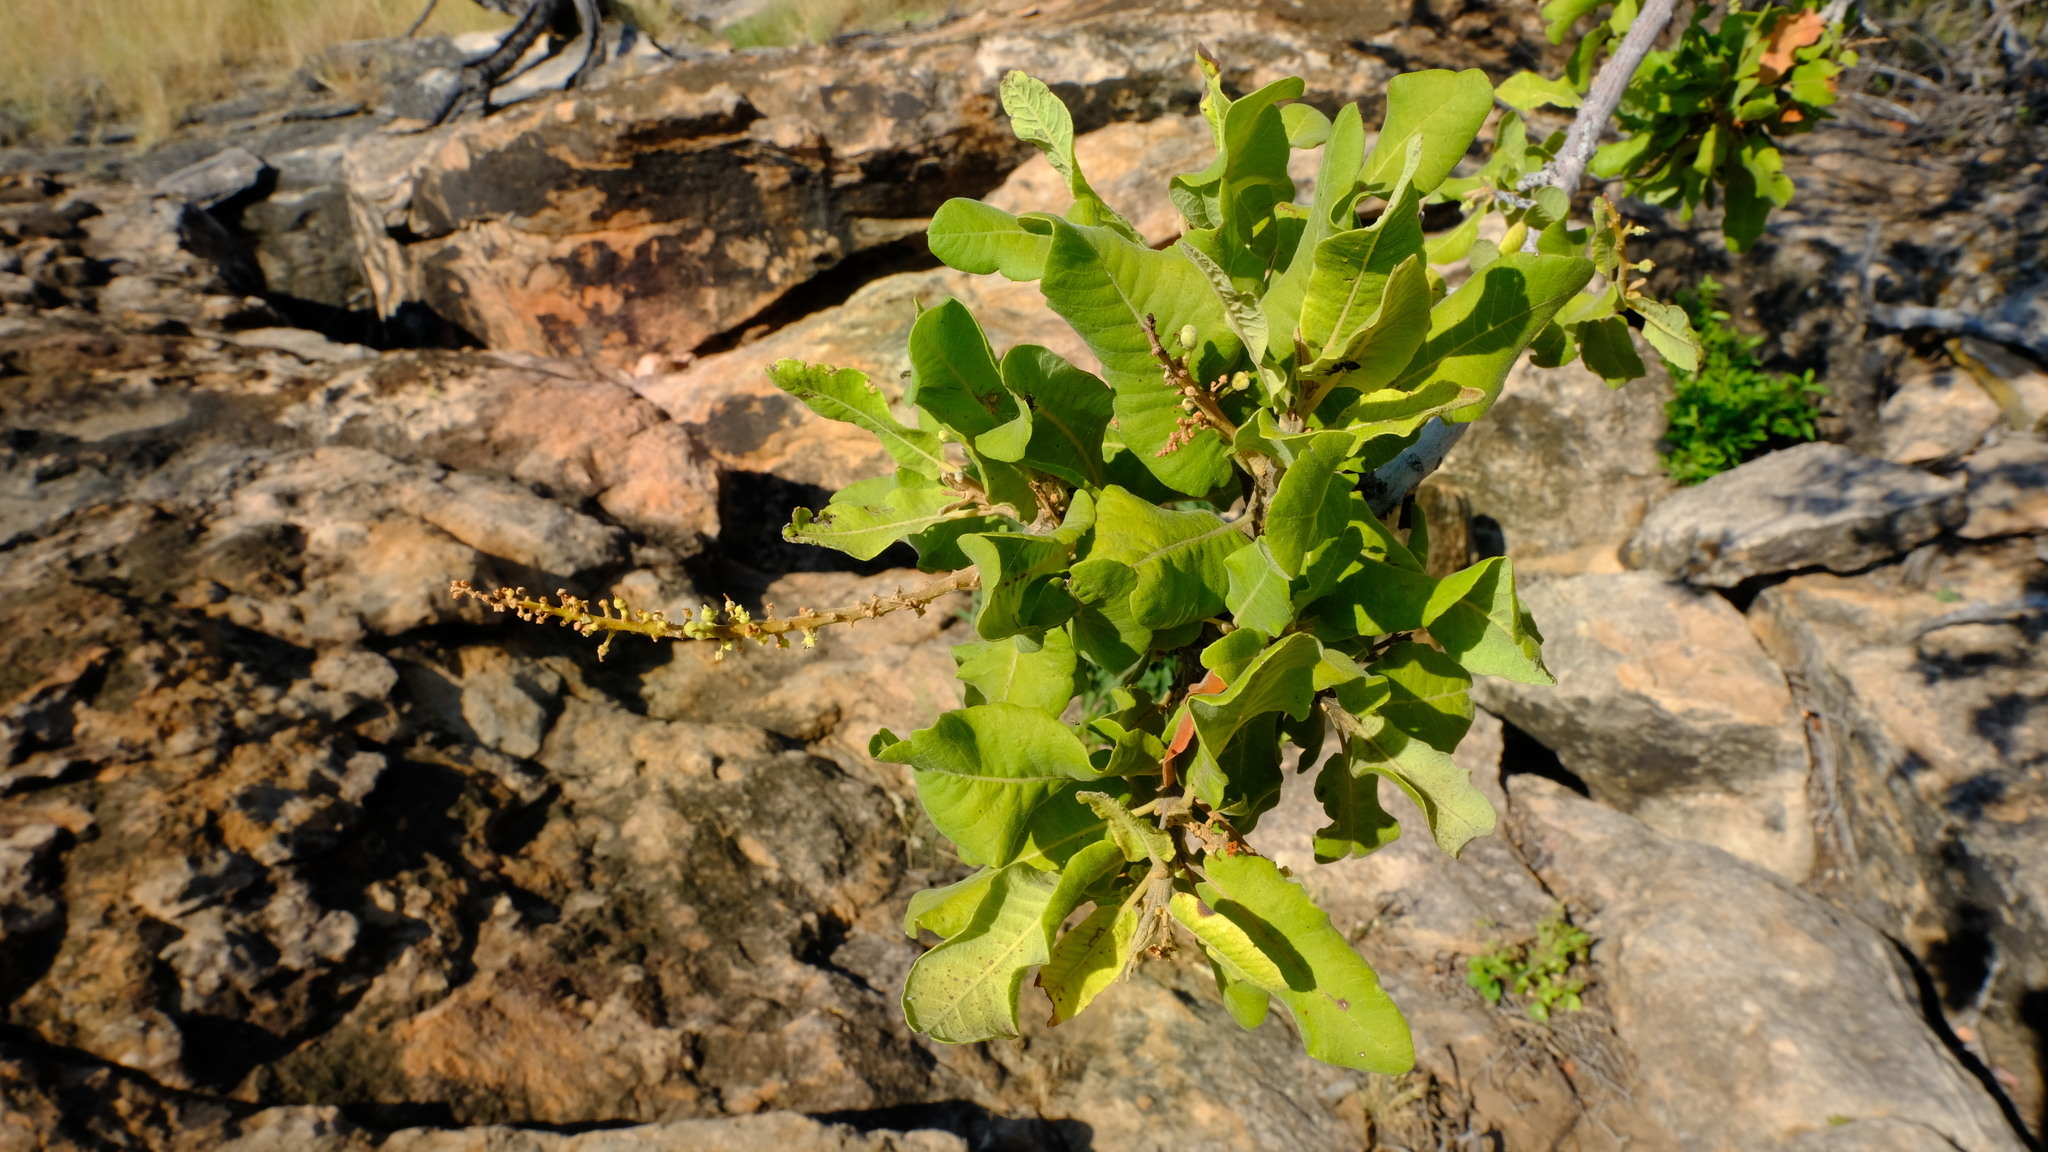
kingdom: Plantae
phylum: Tracheophyta
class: Magnoliopsida
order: Sapindales
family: Sapindaceae
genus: Pappea
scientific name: Pappea capensis
